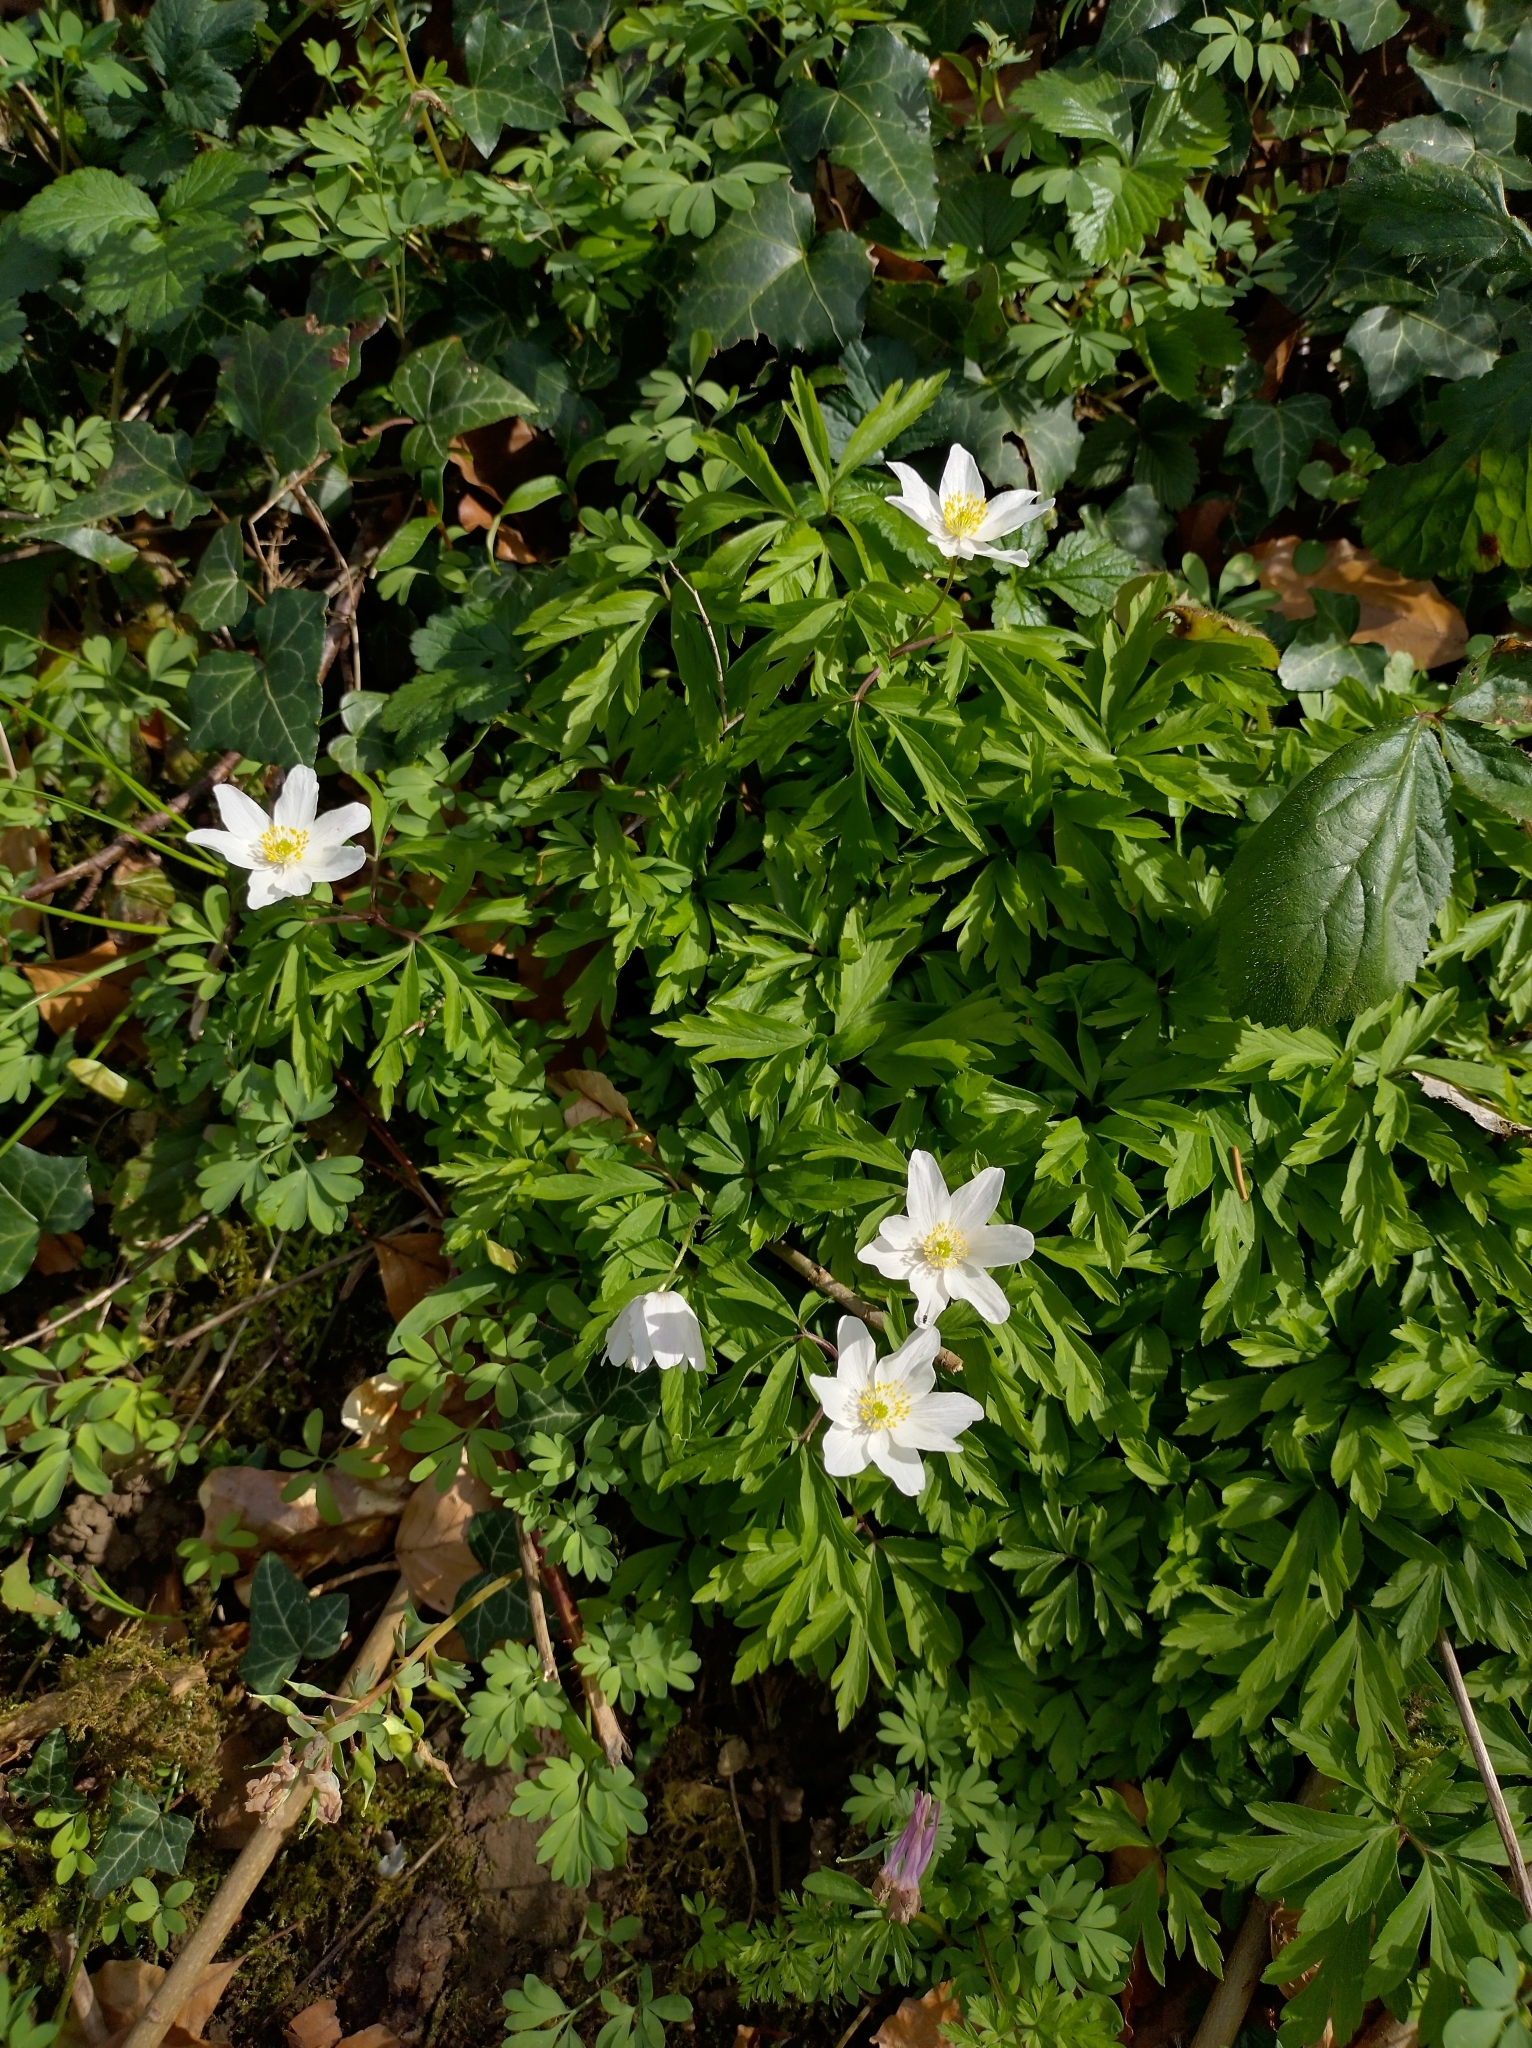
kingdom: Plantae
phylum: Tracheophyta
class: Magnoliopsida
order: Ranunculales
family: Ranunculaceae
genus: Anemone
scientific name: Anemone nemorosa
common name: Wood anemone
